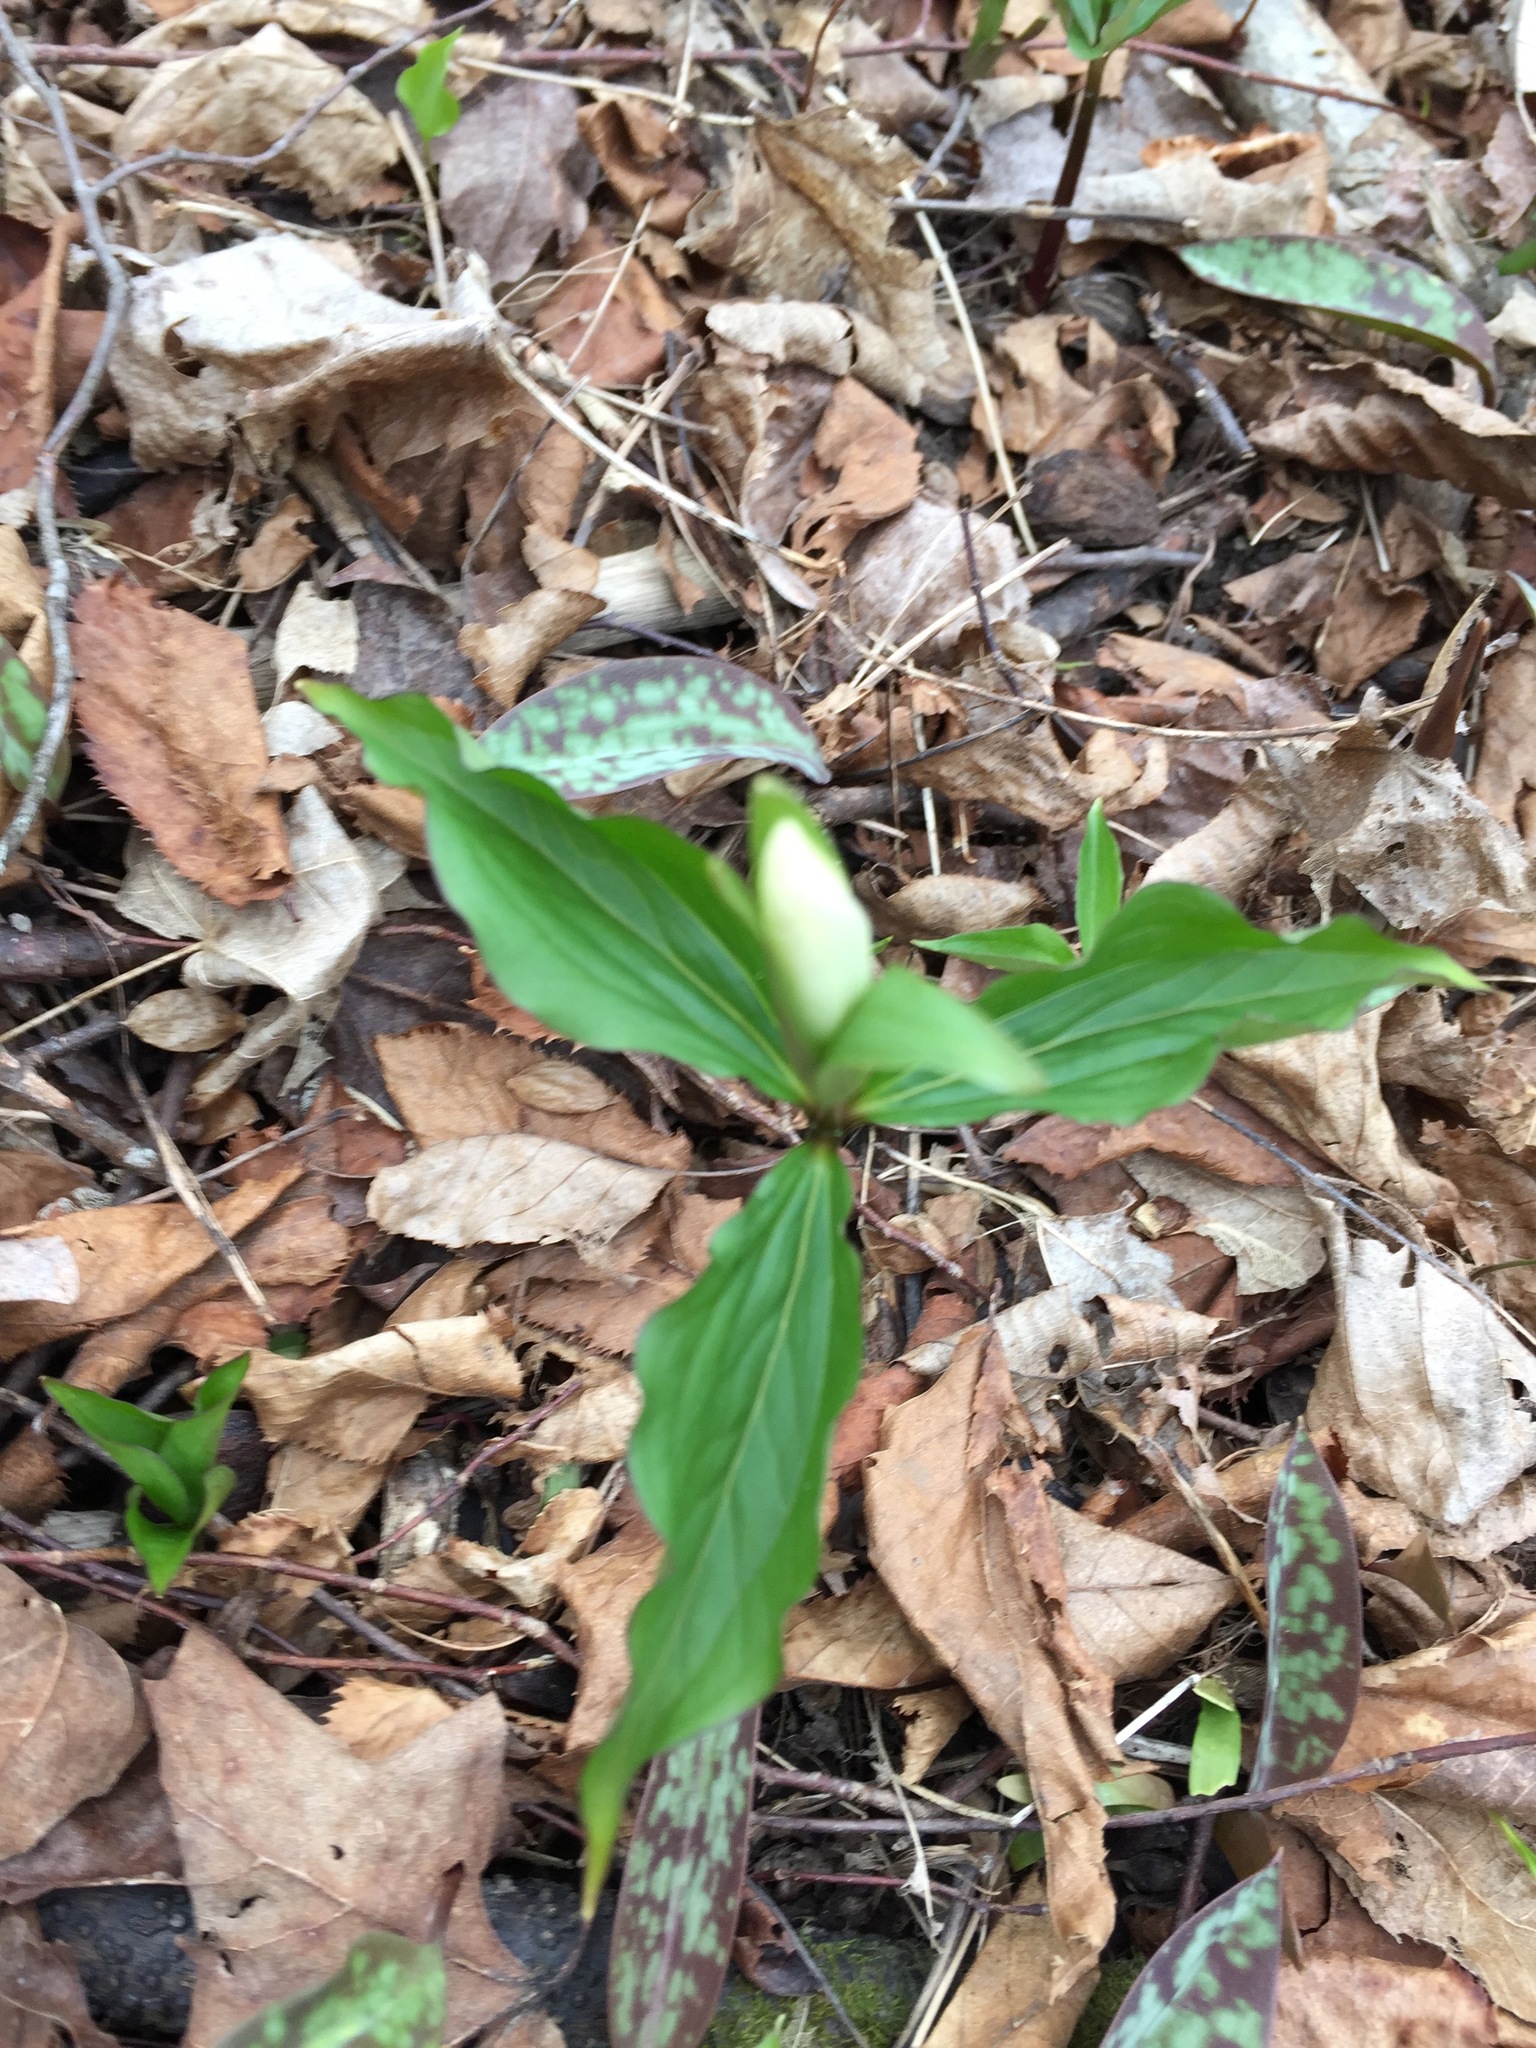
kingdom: Plantae
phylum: Tracheophyta
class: Liliopsida
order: Liliales
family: Melanthiaceae
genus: Trillium
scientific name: Trillium grandiflorum
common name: Great white trillium
